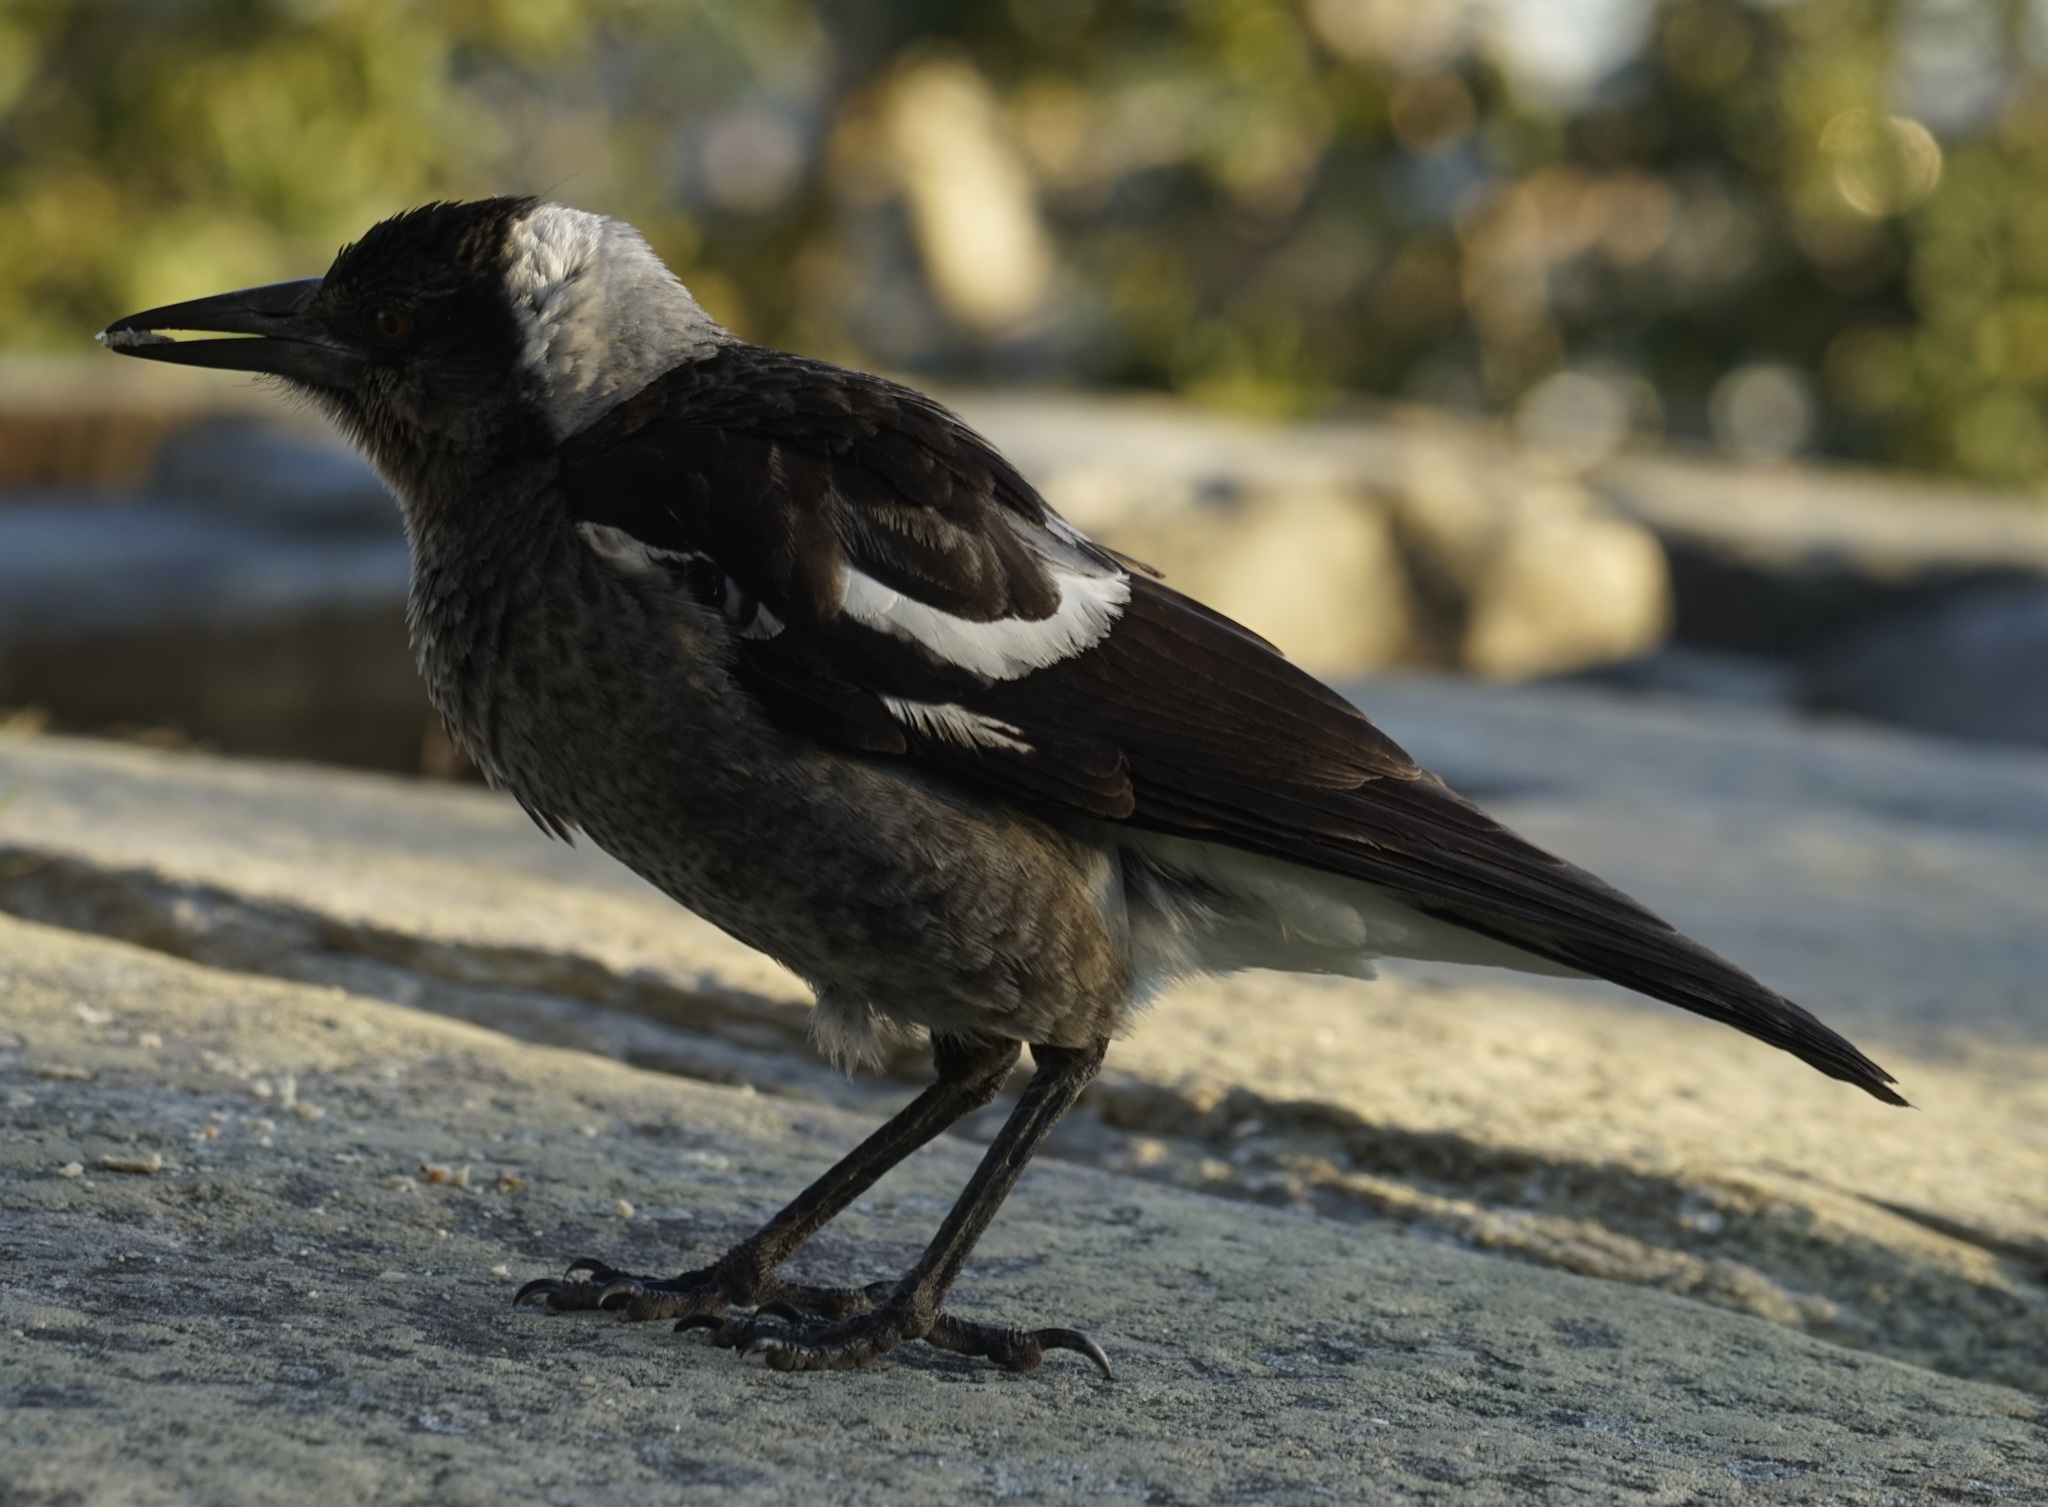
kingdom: Animalia
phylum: Chordata
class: Aves
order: Passeriformes
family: Cracticidae
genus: Gymnorhina
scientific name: Gymnorhina tibicen
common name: Australian magpie
